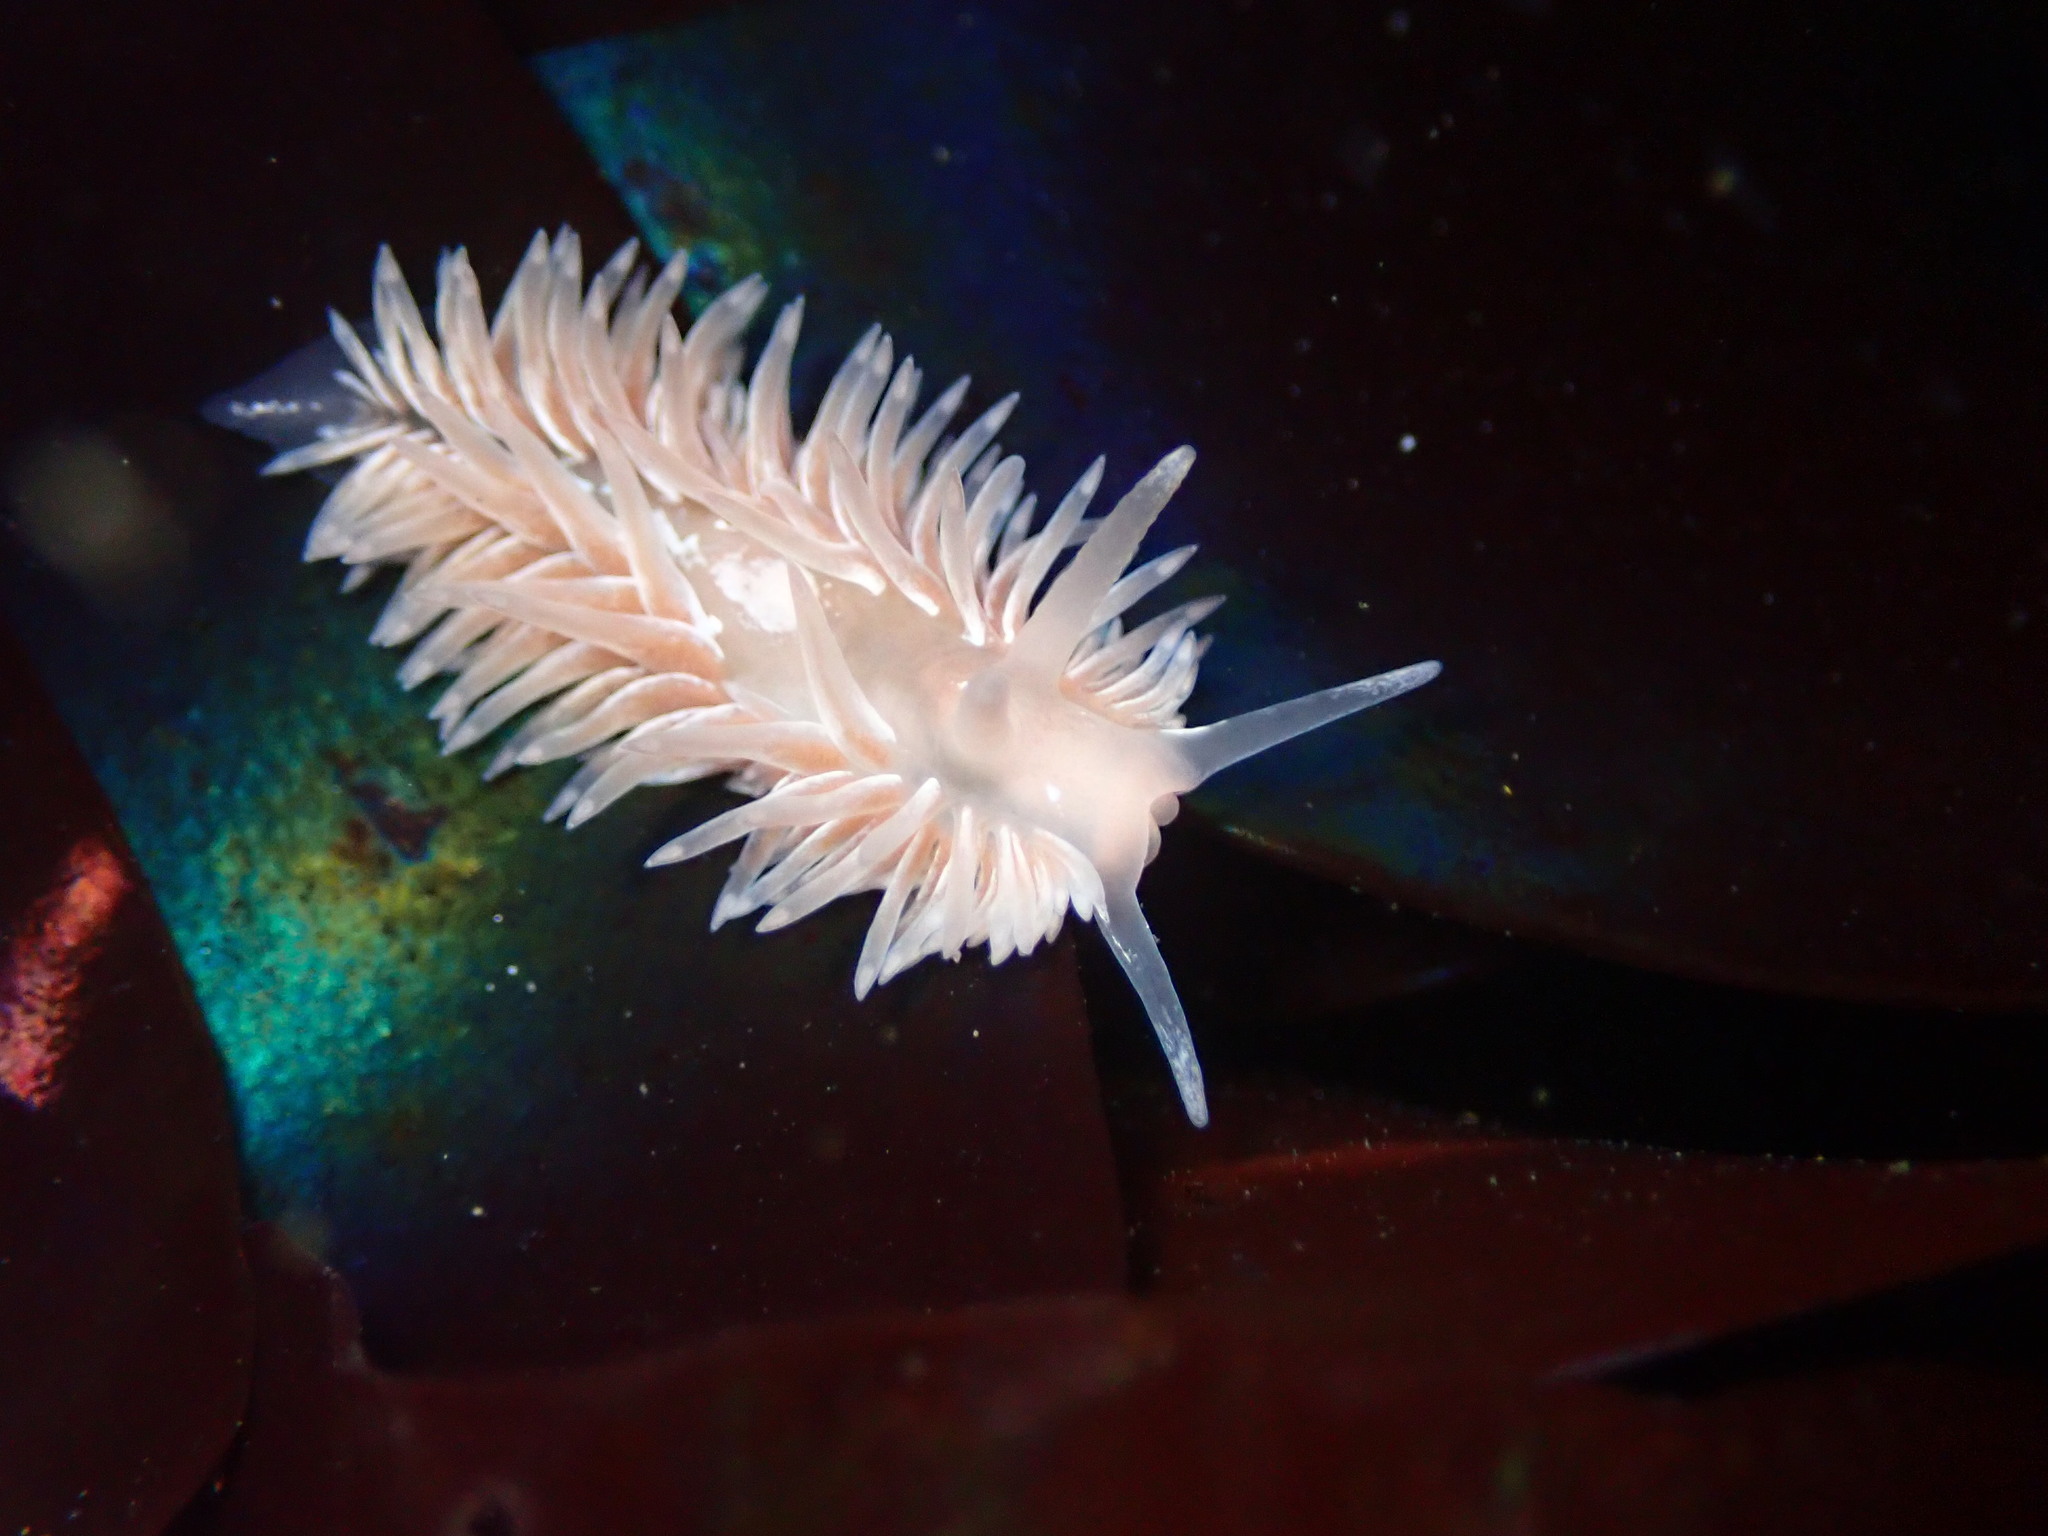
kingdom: Animalia
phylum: Mollusca
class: Gastropoda
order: Nudibranchia
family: Aeolidiidae
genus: Aeolidia
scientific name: Aeolidia loui
